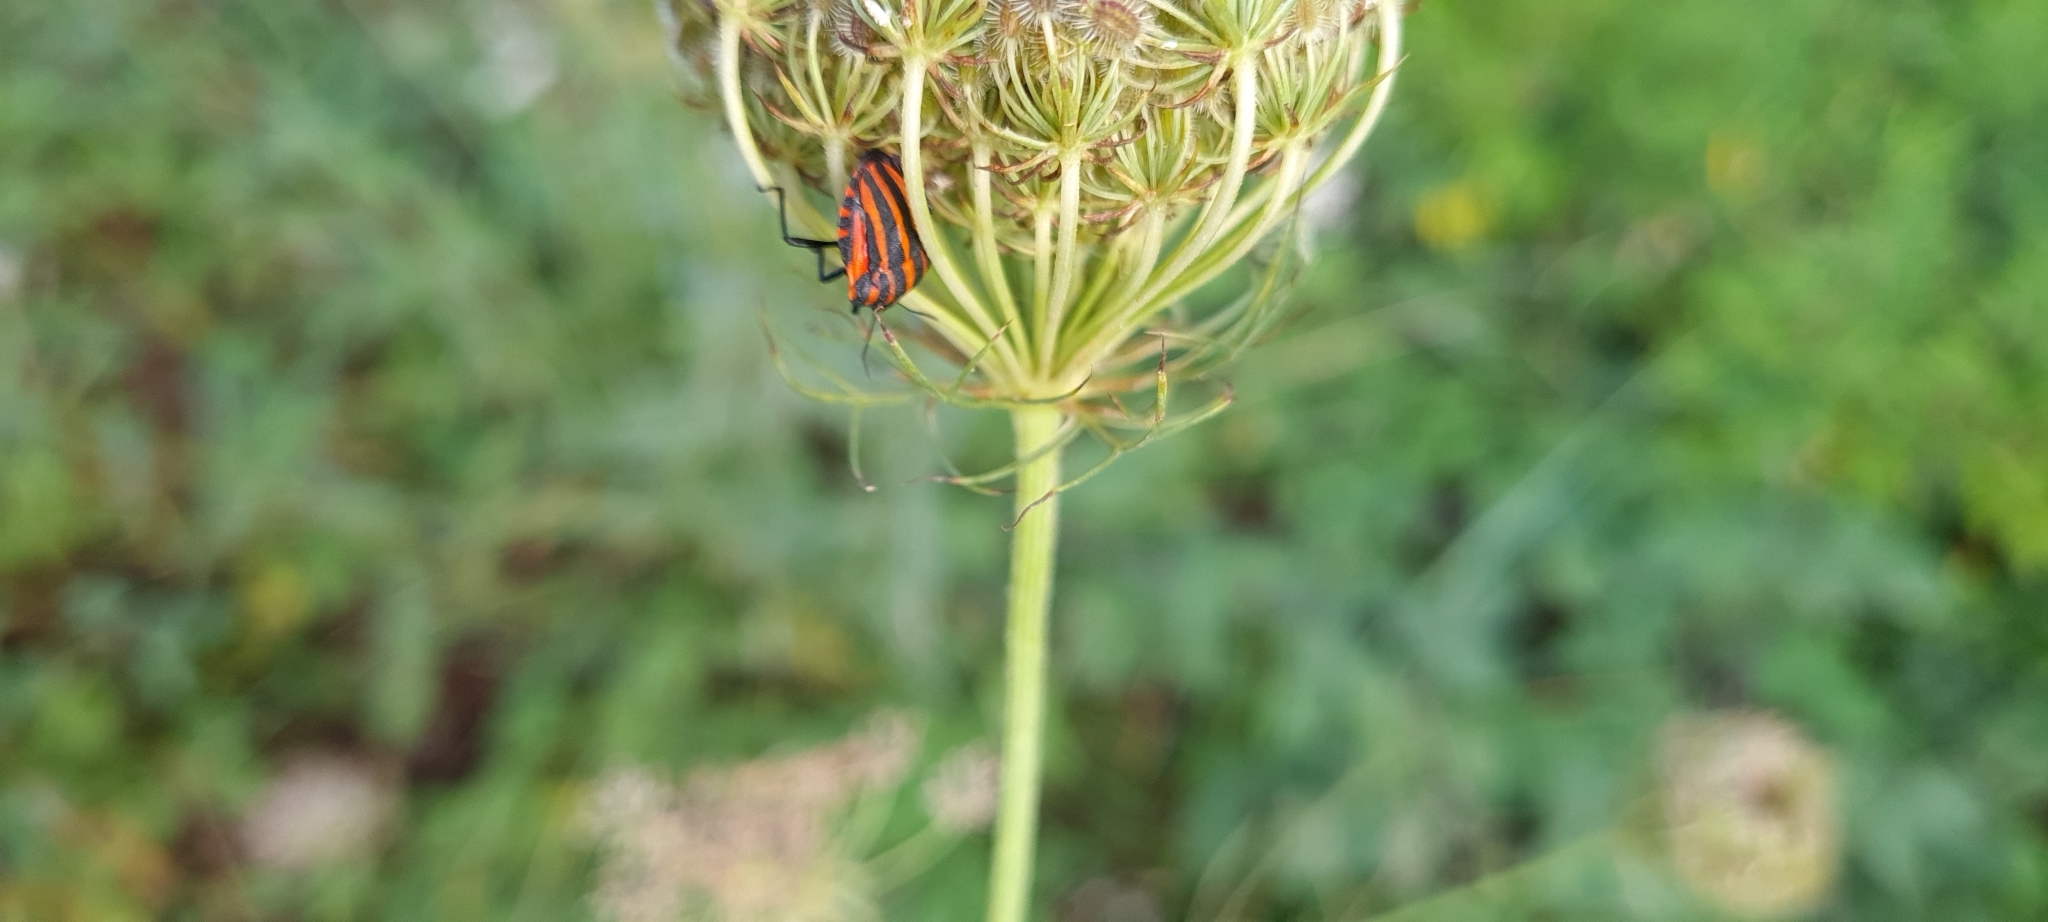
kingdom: Animalia
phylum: Arthropoda
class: Insecta
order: Hemiptera
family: Pentatomidae
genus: Graphosoma
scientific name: Graphosoma italicum
